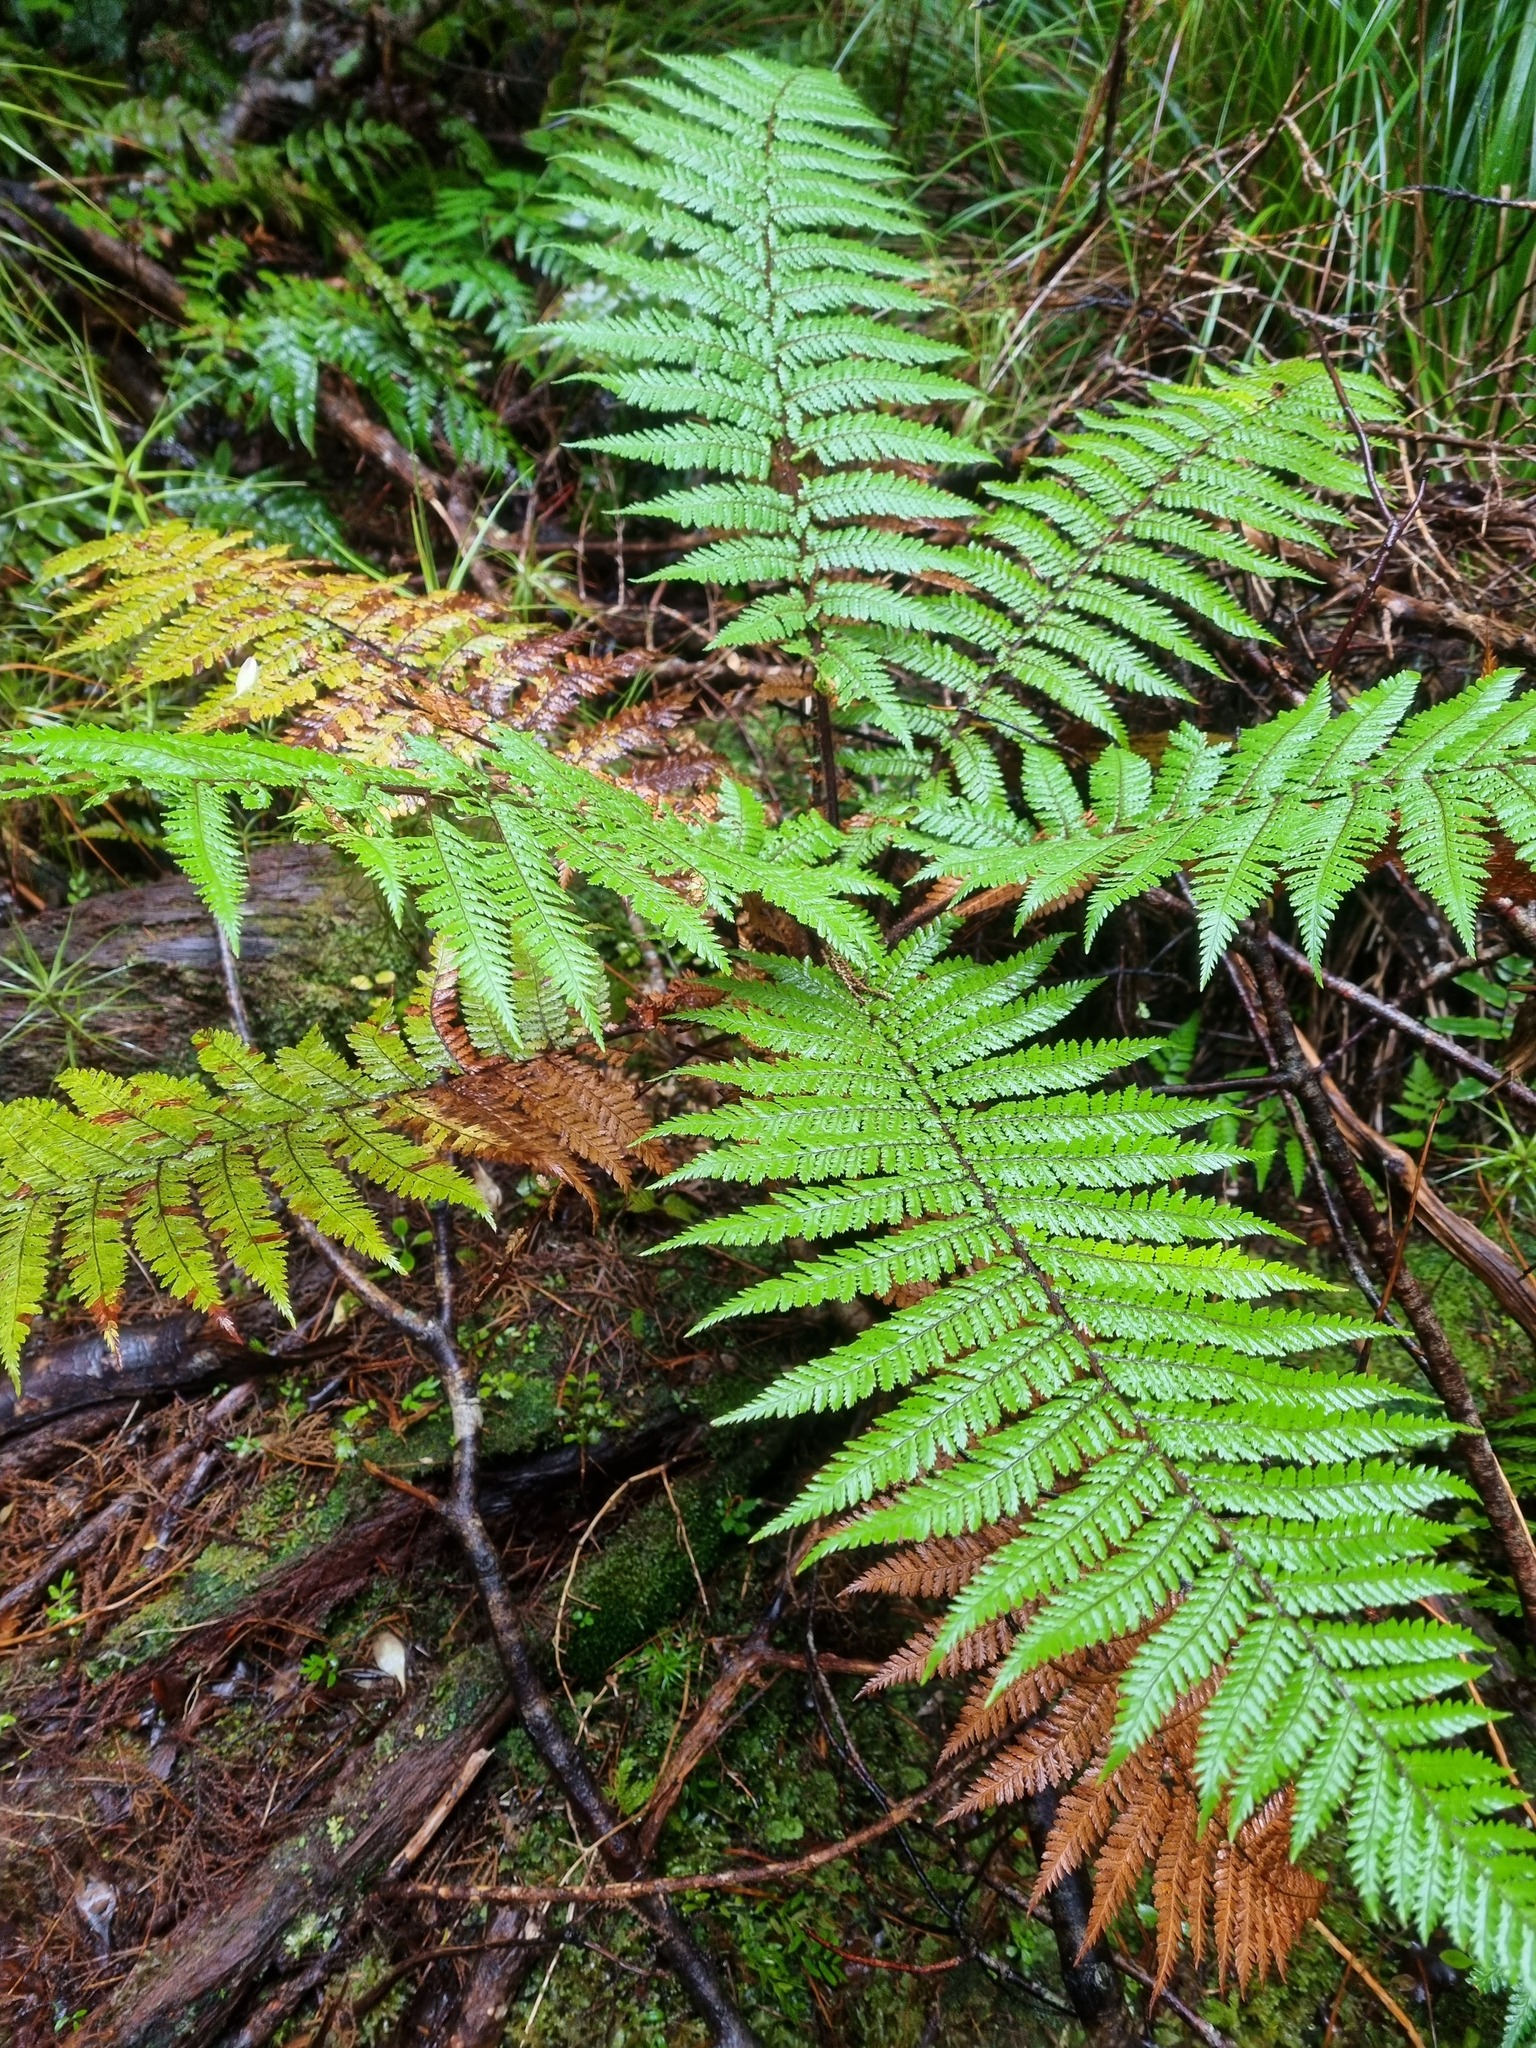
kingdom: Plantae
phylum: Tracheophyta
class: Polypodiopsida
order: Cyatheales
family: Dicksoniaceae
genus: Dicksonia
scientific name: Dicksonia squarrosa
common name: Hard treefern
